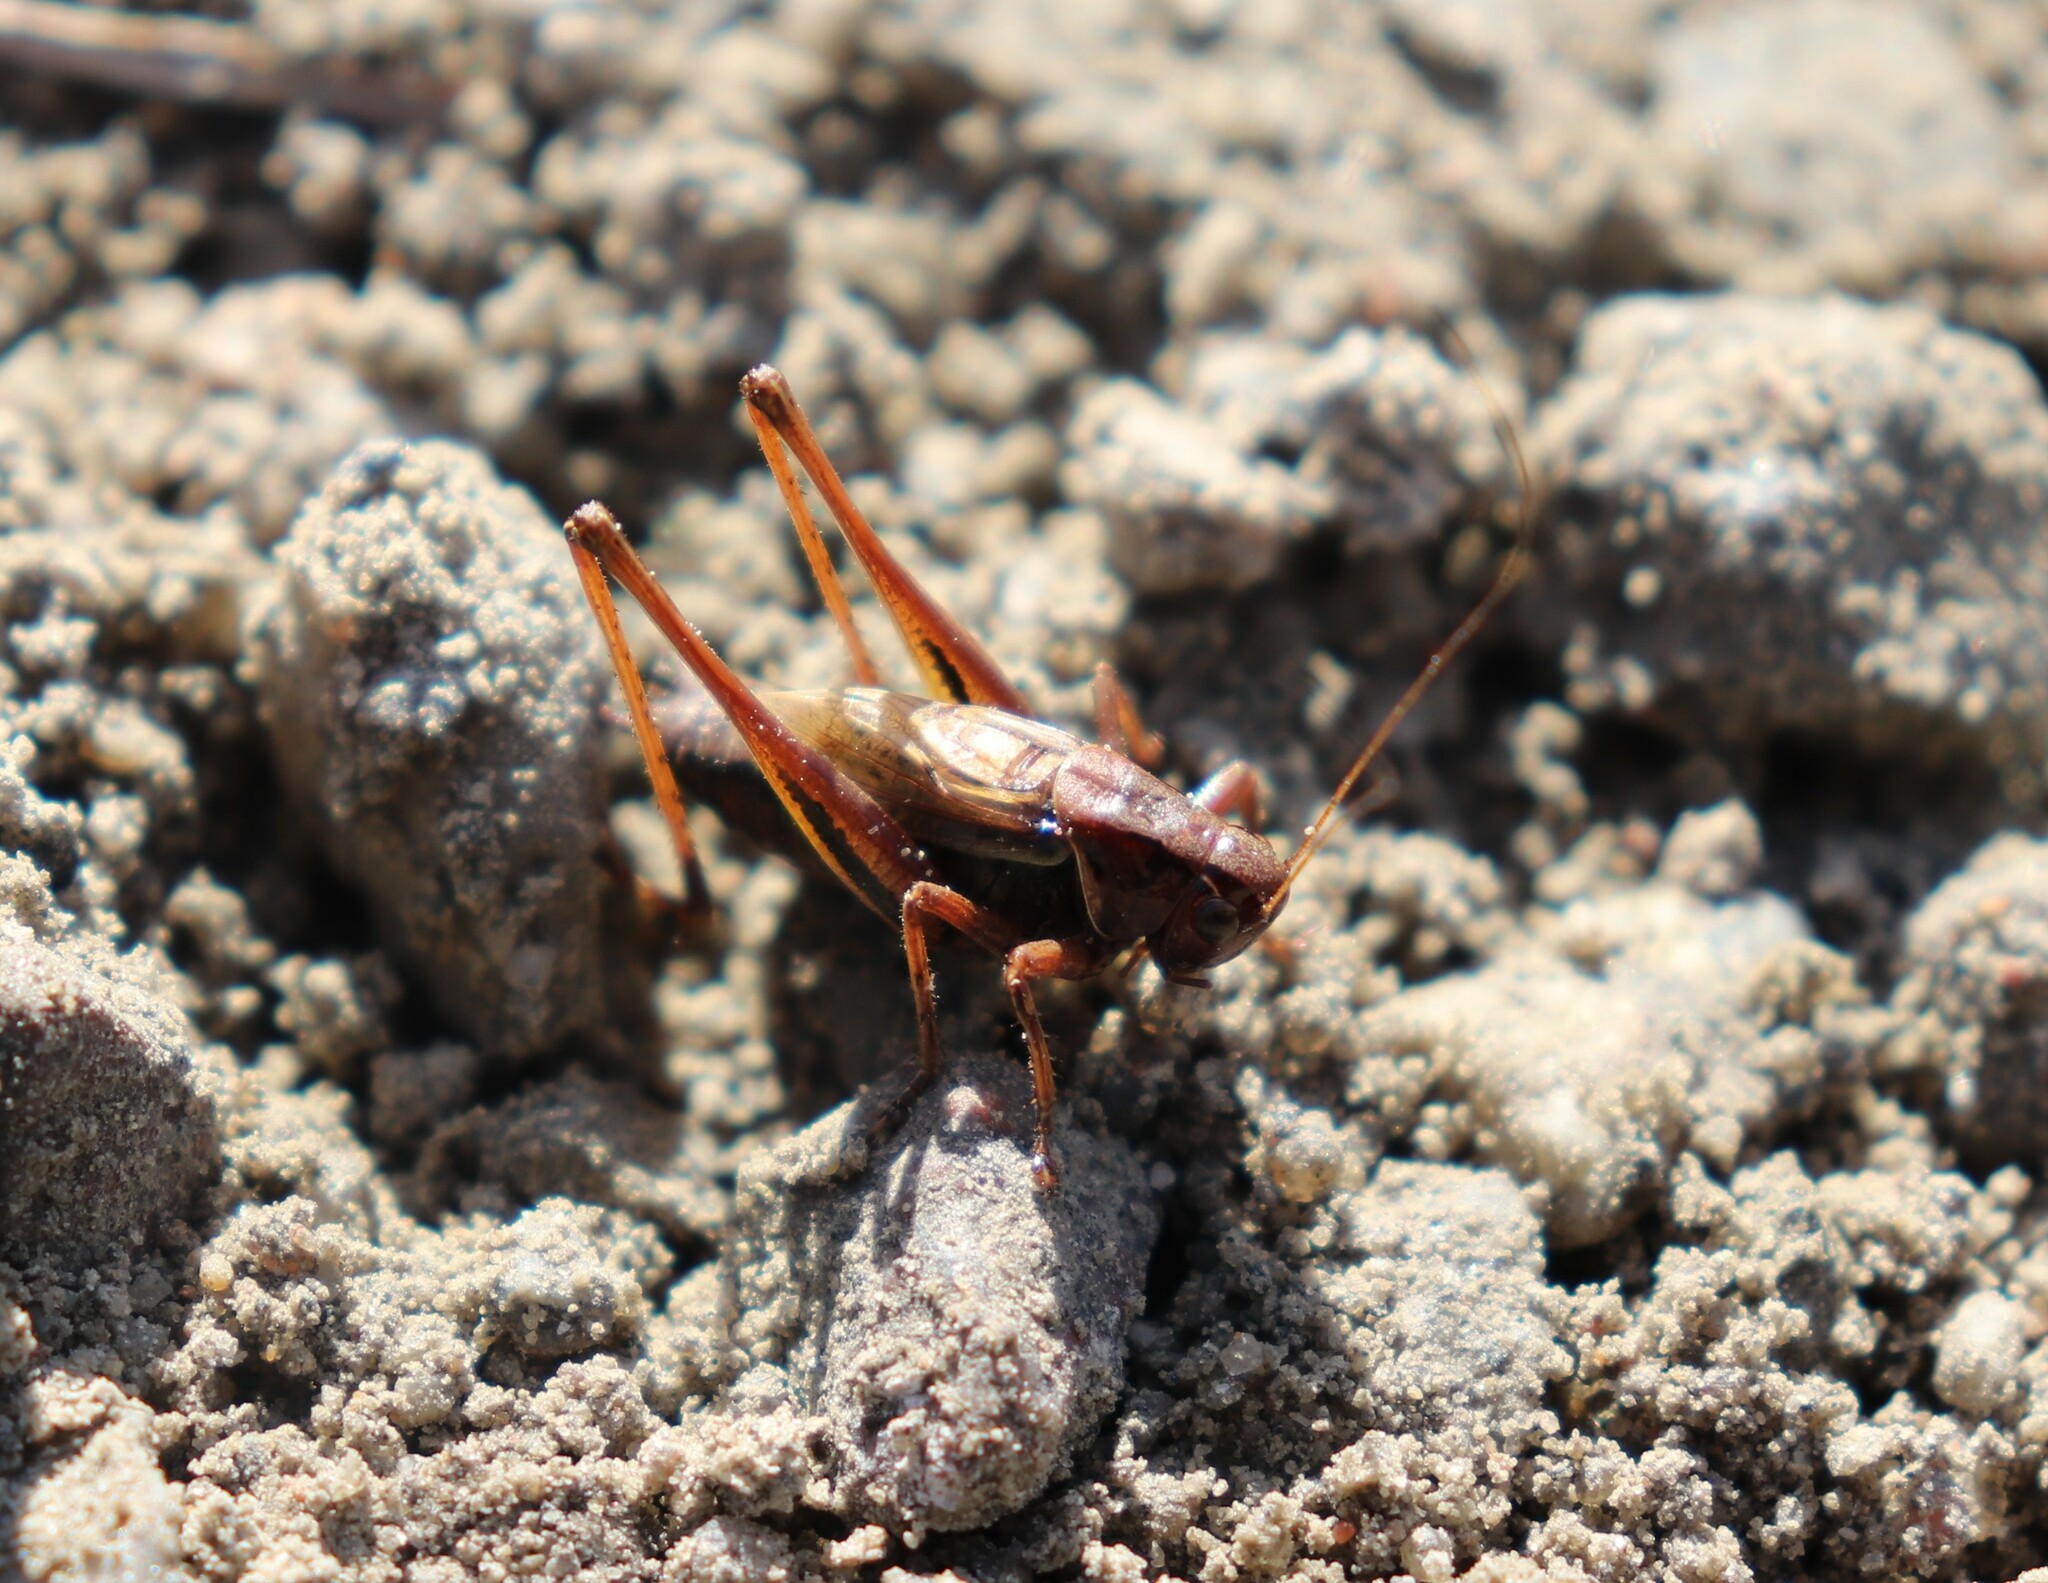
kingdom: Animalia
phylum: Arthropoda
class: Insecta
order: Orthoptera
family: Tettigoniidae
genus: Metrioptera
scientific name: Metrioptera brachyptera
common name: Bog bush-cricket
